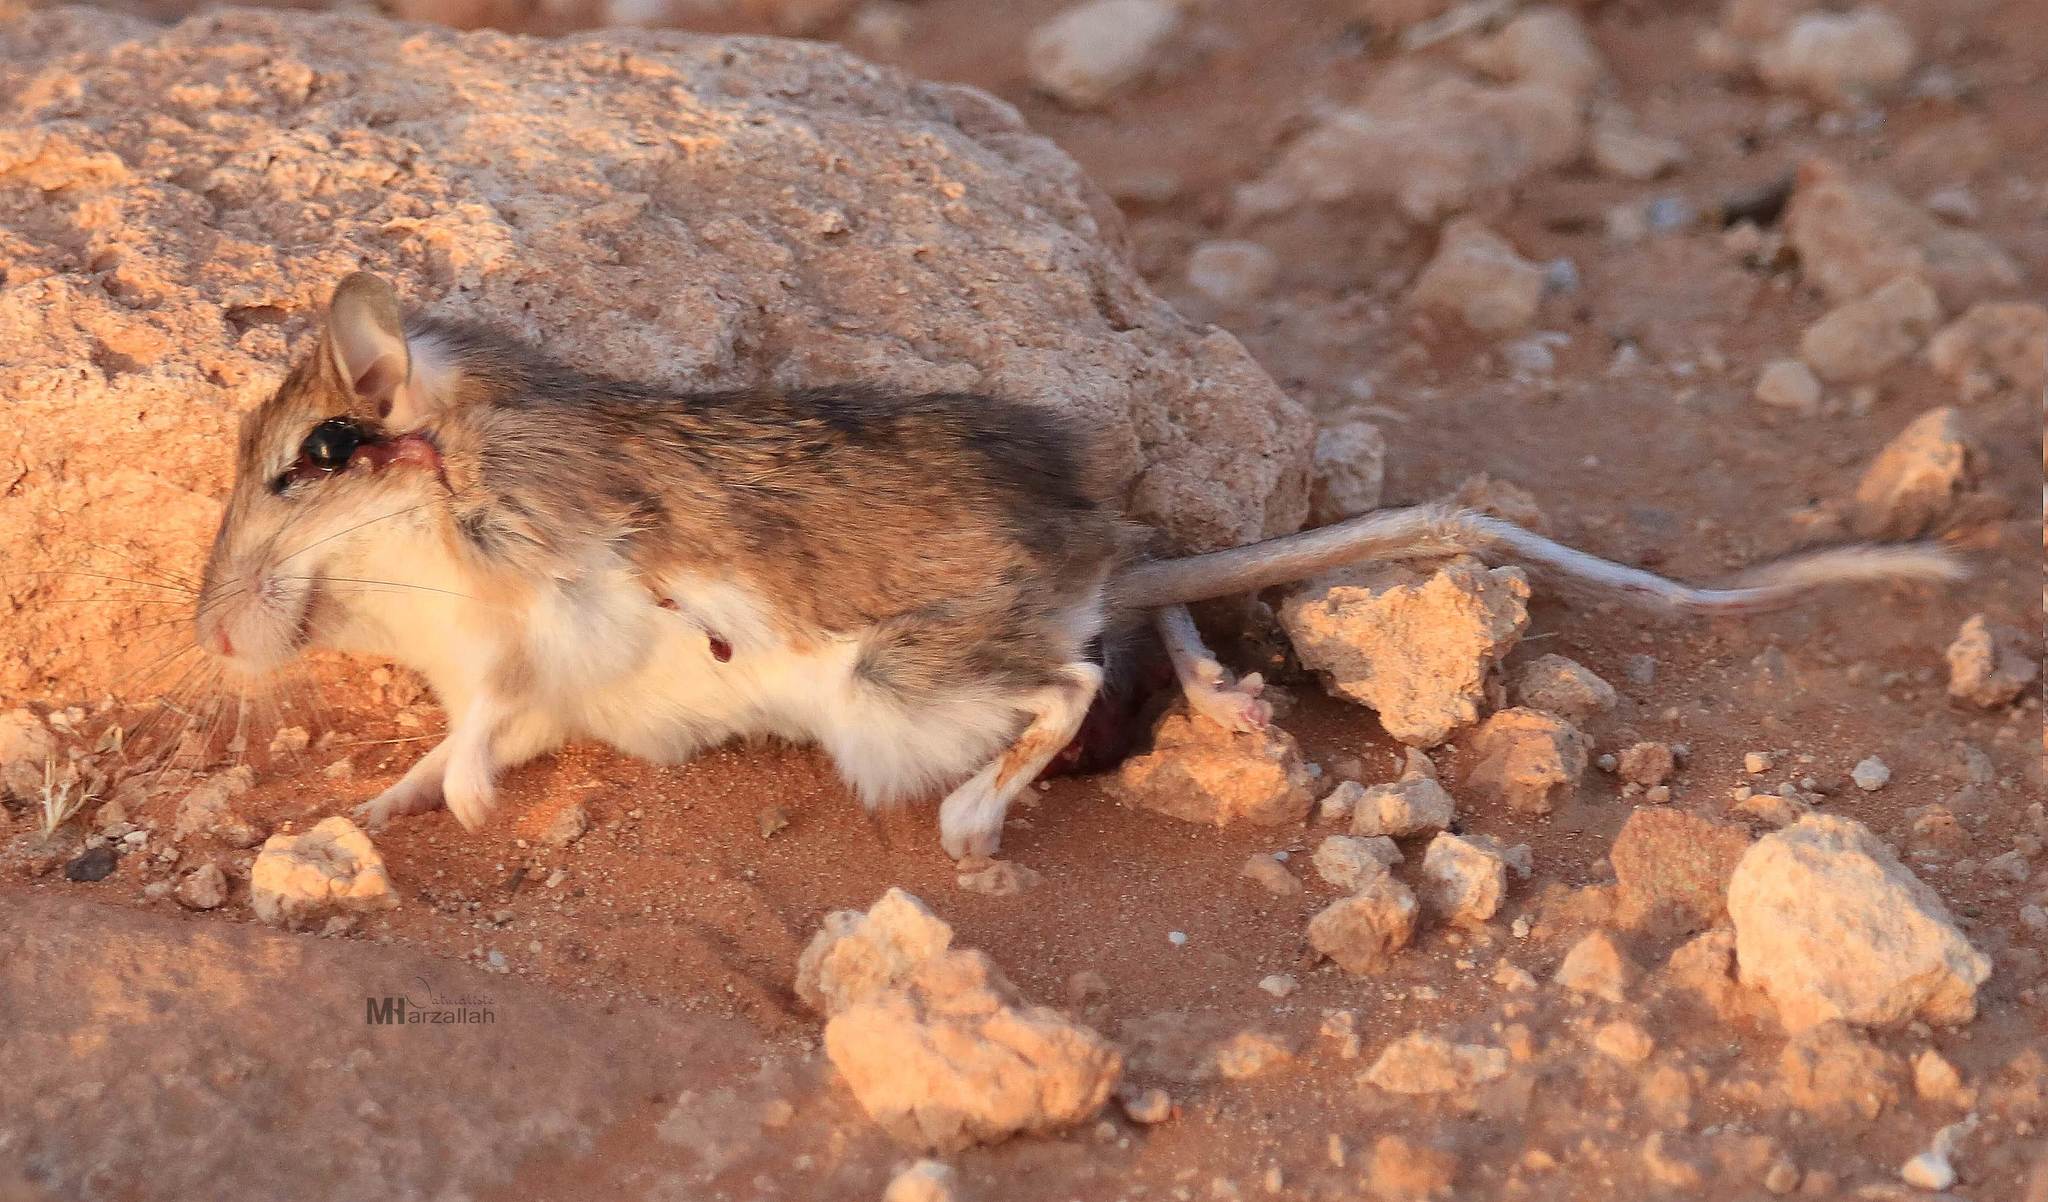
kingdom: Animalia
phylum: Chordata
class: Mammalia
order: Rodentia
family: Muridae
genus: Gerbillus
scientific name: Gerbillus tarabuli
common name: Tarabul's gerbil
